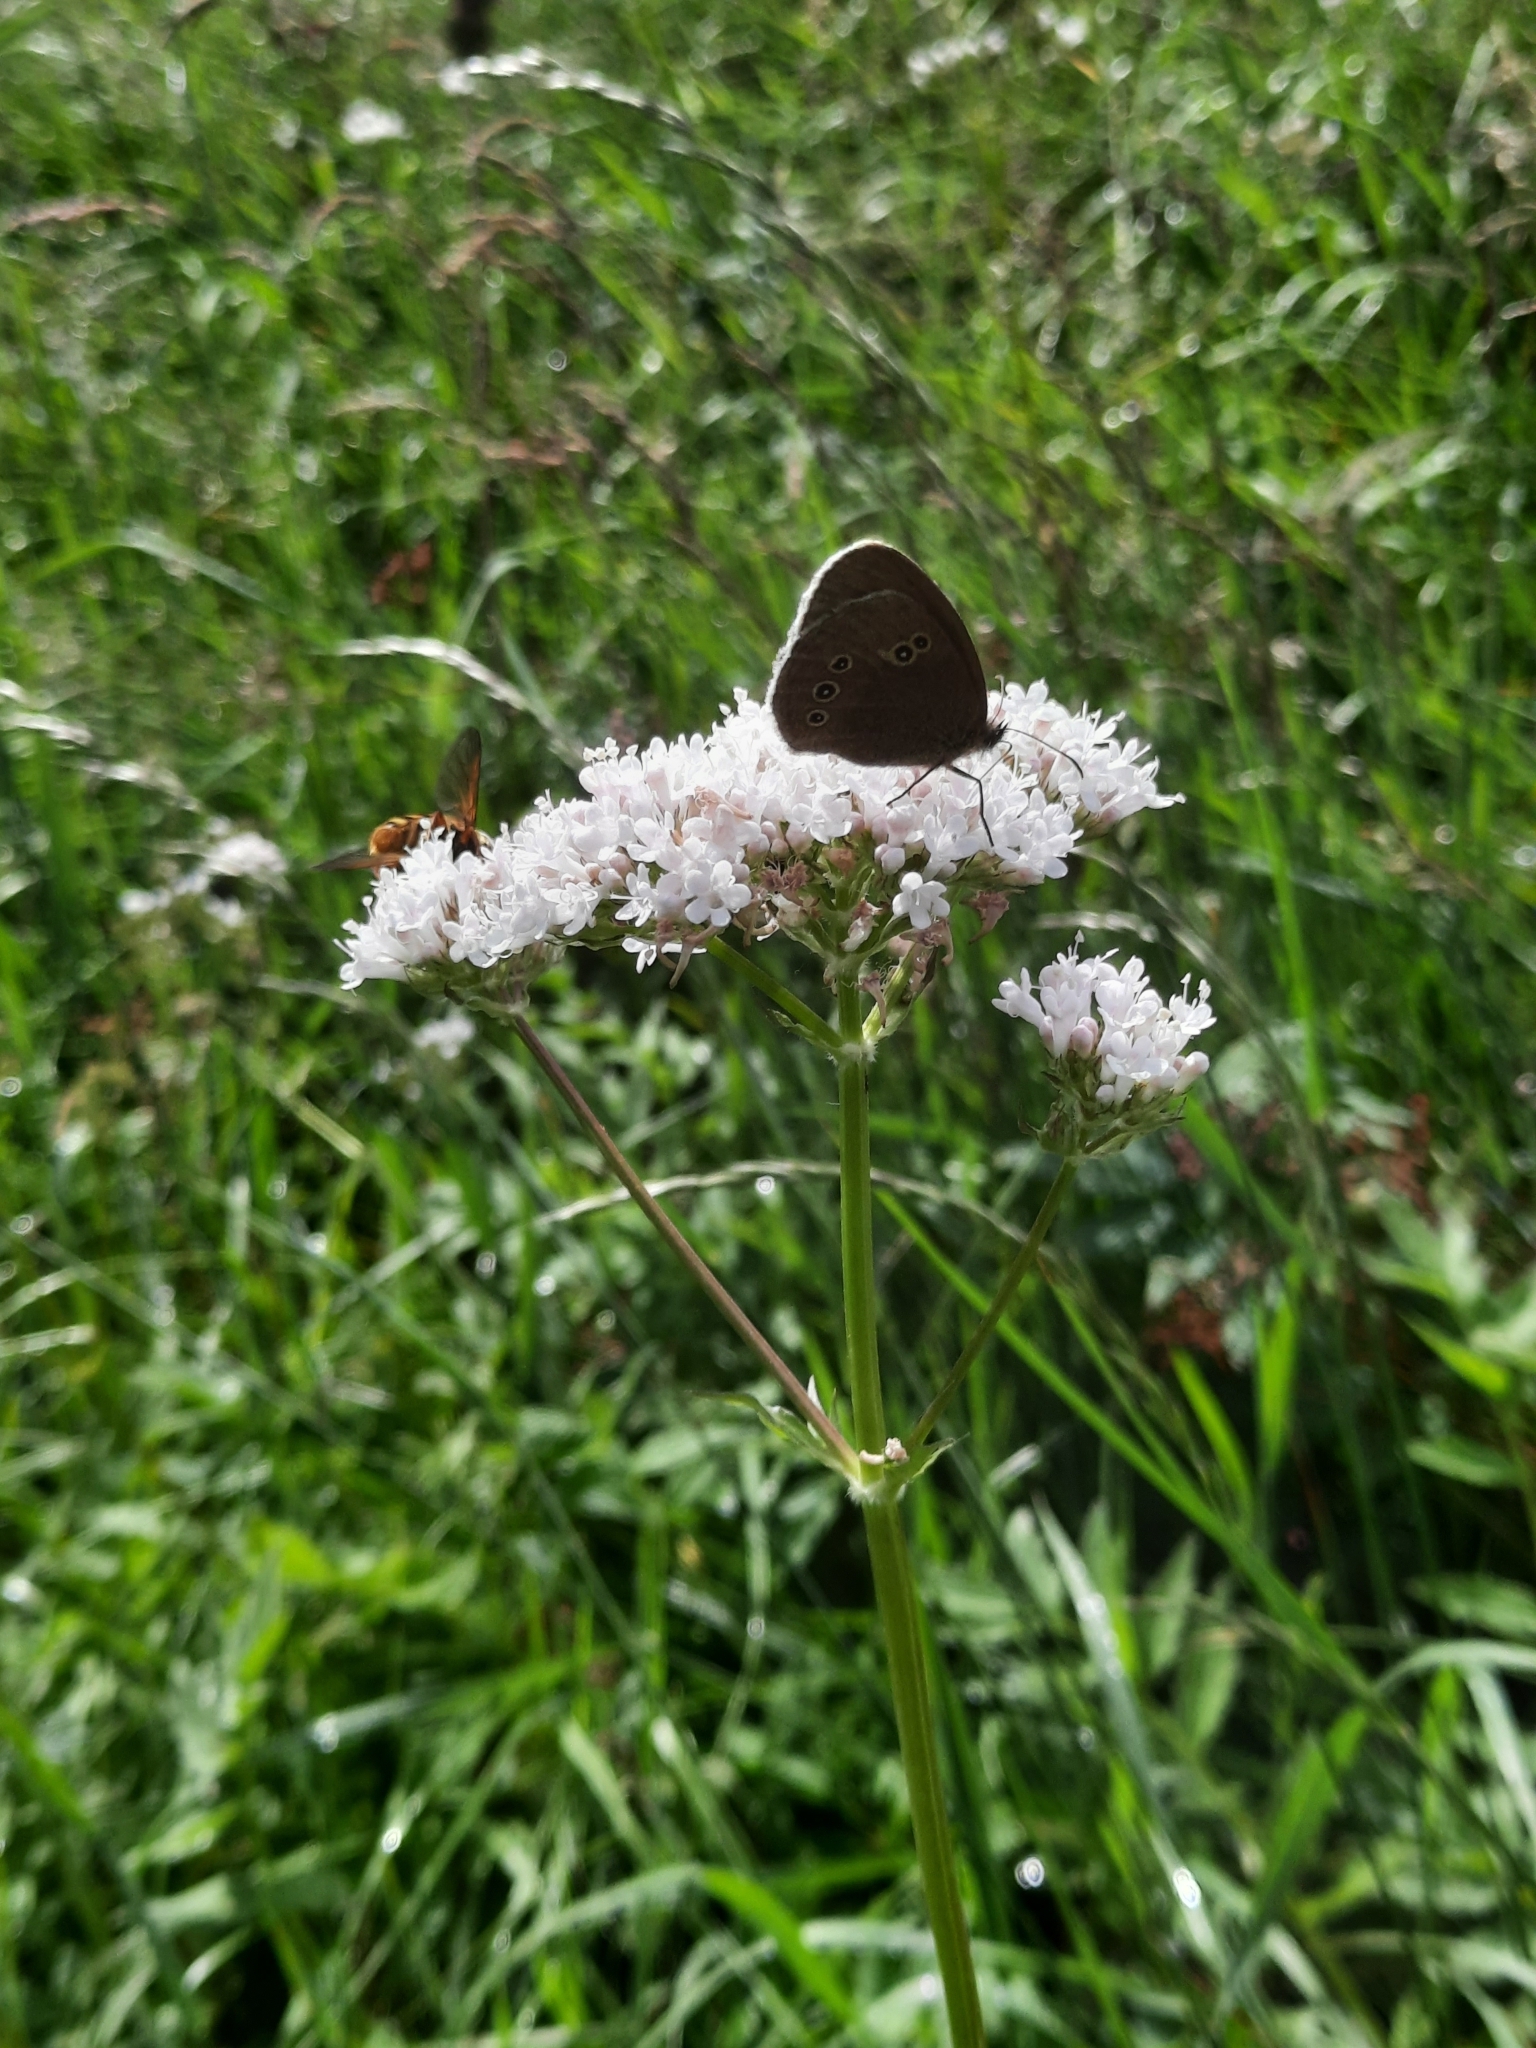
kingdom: Animalia
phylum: Arthropoda
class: Insecta
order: Lepidoptera
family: Nymphalidae
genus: Aphantopus
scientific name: Aphantopus hyperantus
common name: Ringlet
